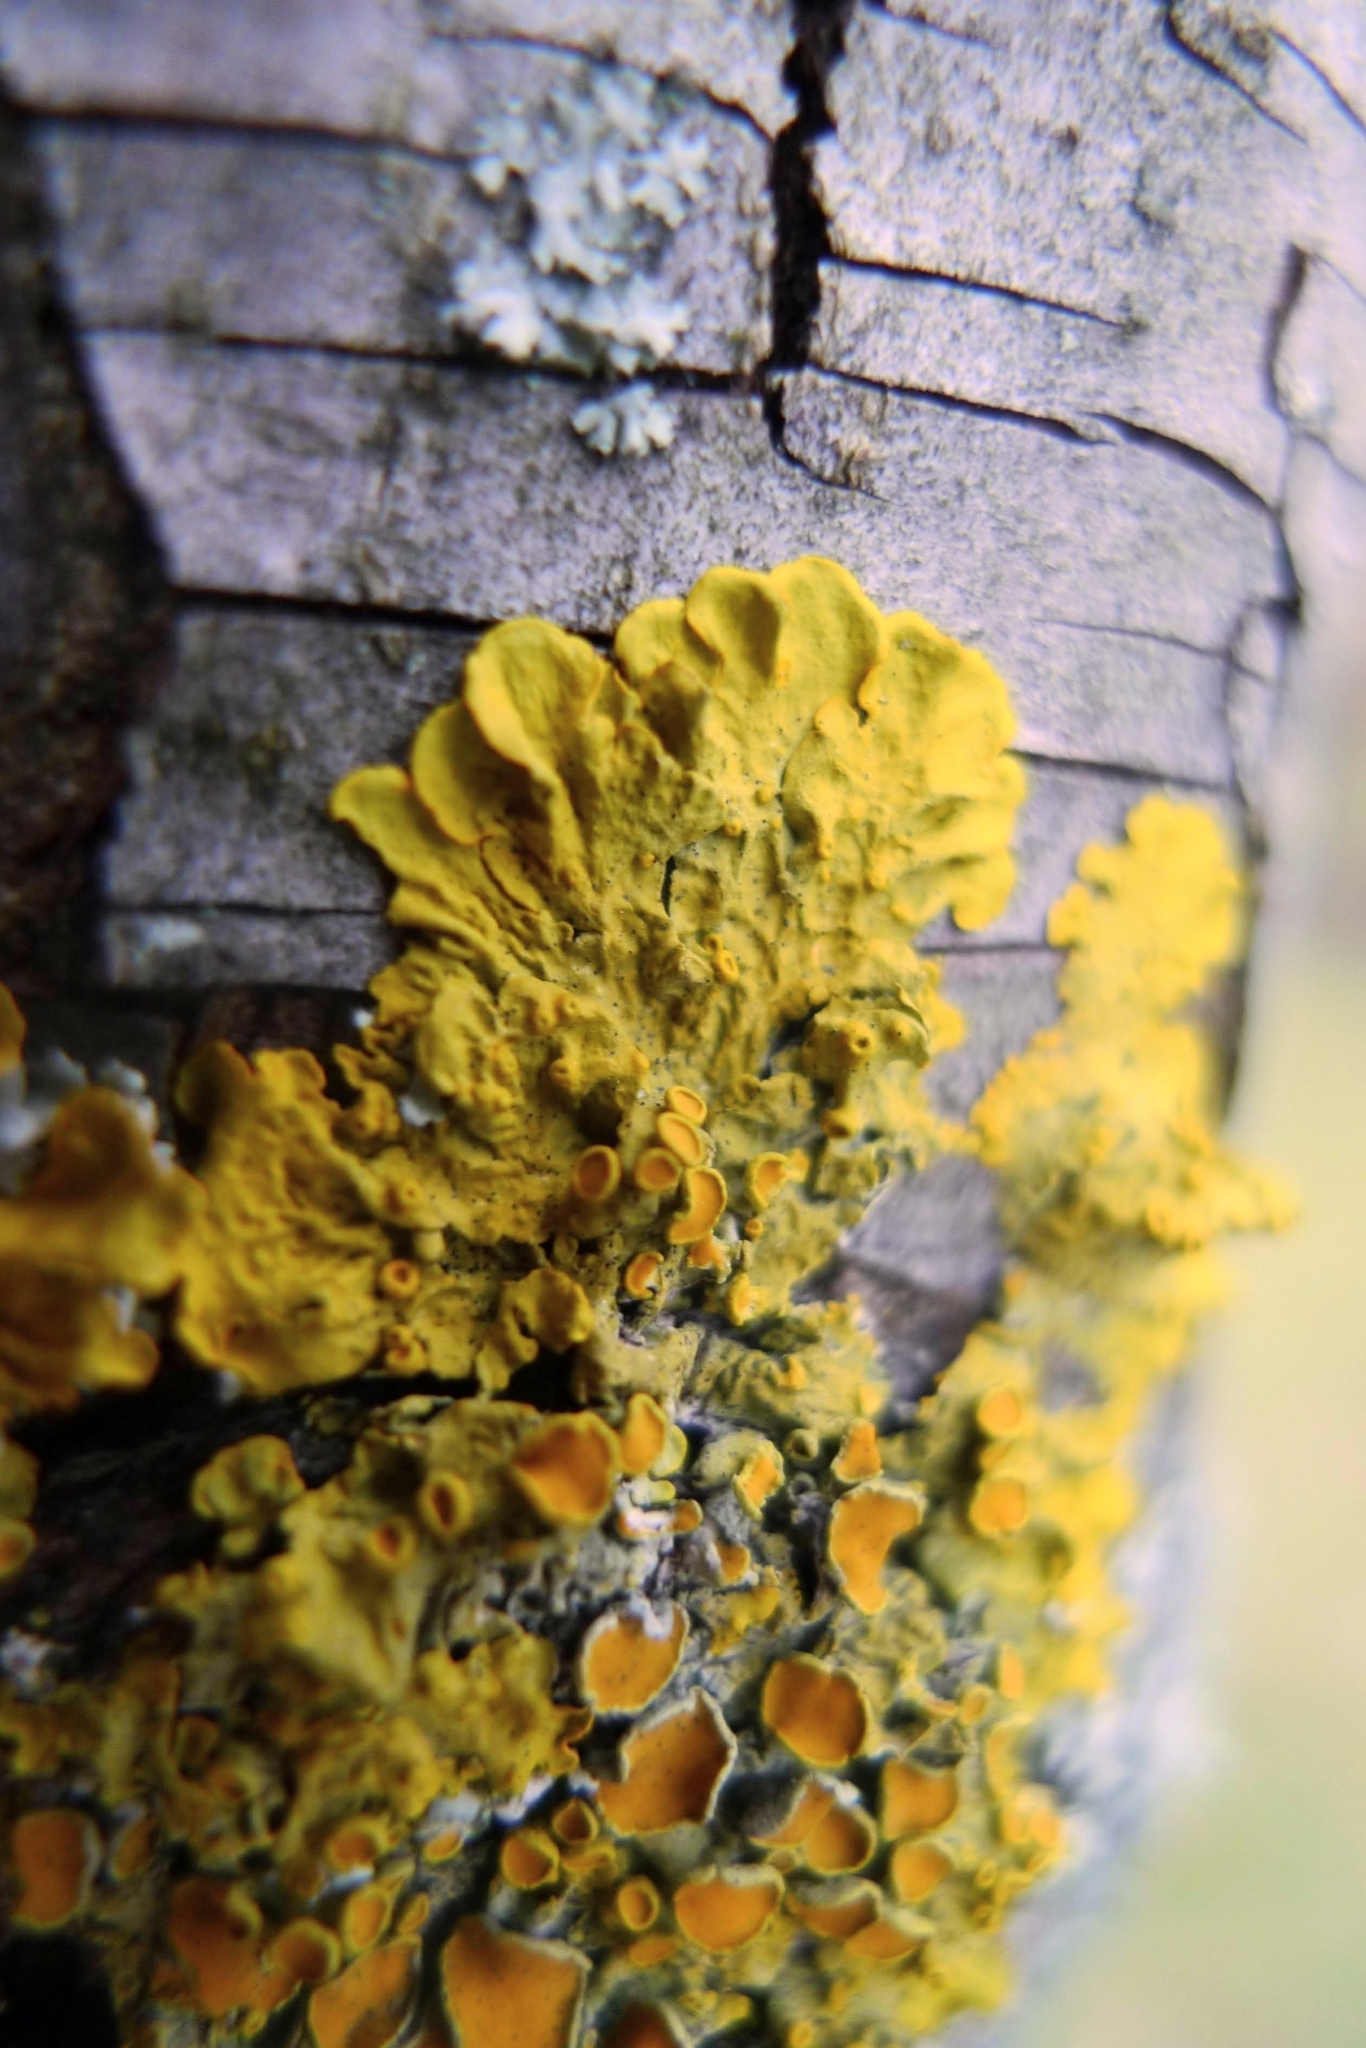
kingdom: Fungi
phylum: Ascomycota
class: Lecanoromycetes
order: Teloschistales
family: Teloschistaceae
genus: Xanthoria
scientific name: Xanthoria parietina
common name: Common orange lichen
